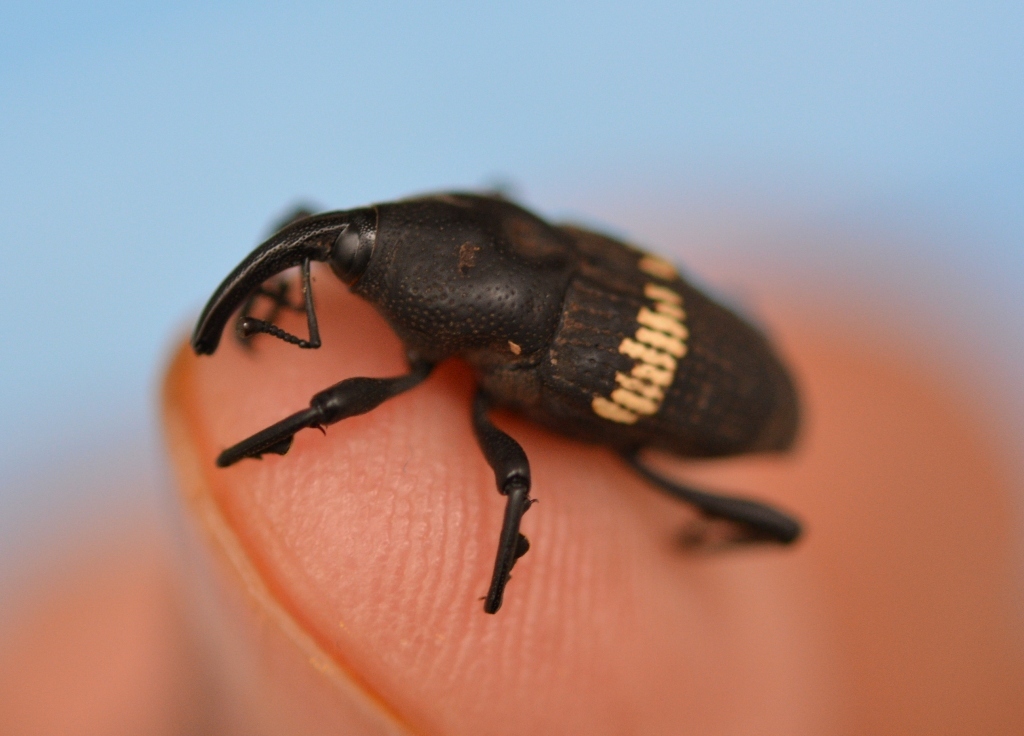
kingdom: Animalia
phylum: Arthropoda
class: Insecta
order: Coleoptera
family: Dryophthoridae
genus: Metamasius
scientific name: Metamasius callizona
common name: Mexican bromeliad weevil
